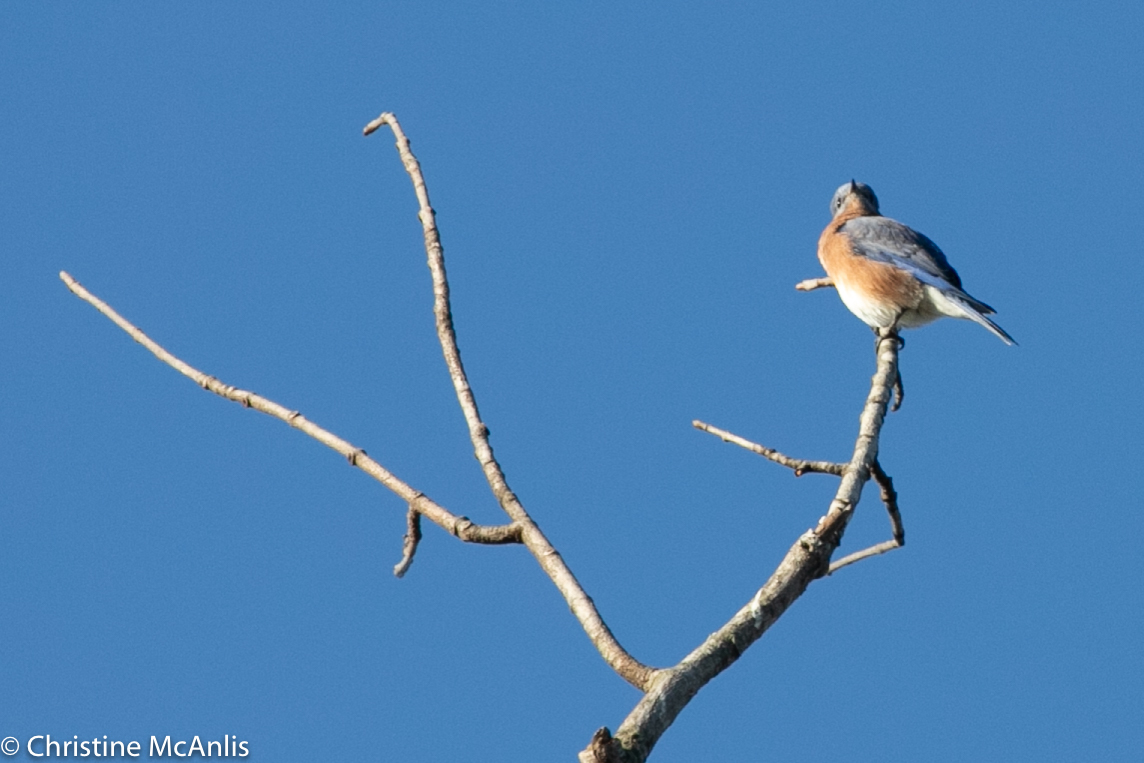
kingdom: Animalia
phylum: Chordata
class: Aves
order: Passeriformes
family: Turdidae
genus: Sialia
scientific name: Sialia sialis
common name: Eastern bluebird
